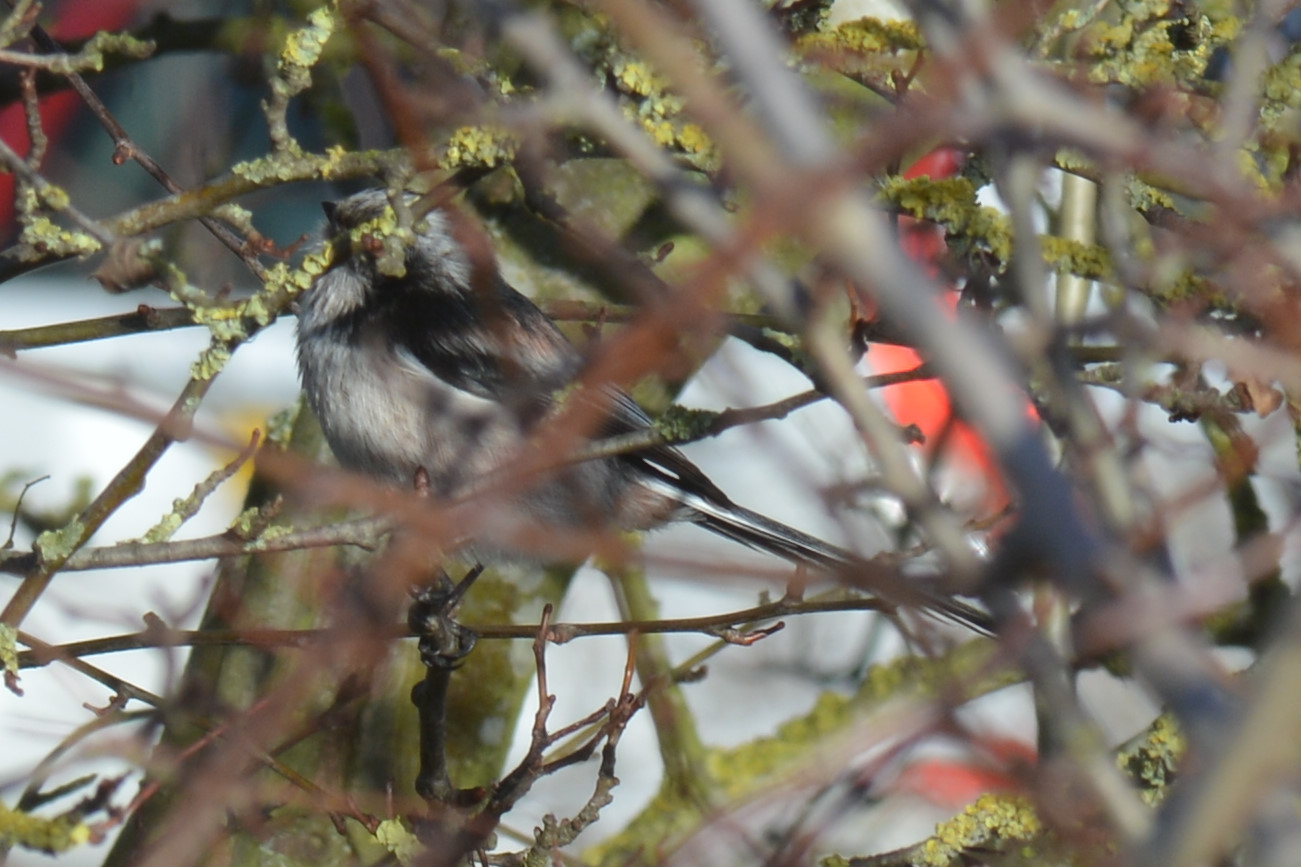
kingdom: Animalia
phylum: Chordata
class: Aves
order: Passeriformes
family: Aegithalidae
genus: Aegithalos
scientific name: Aegithalos caudatus
